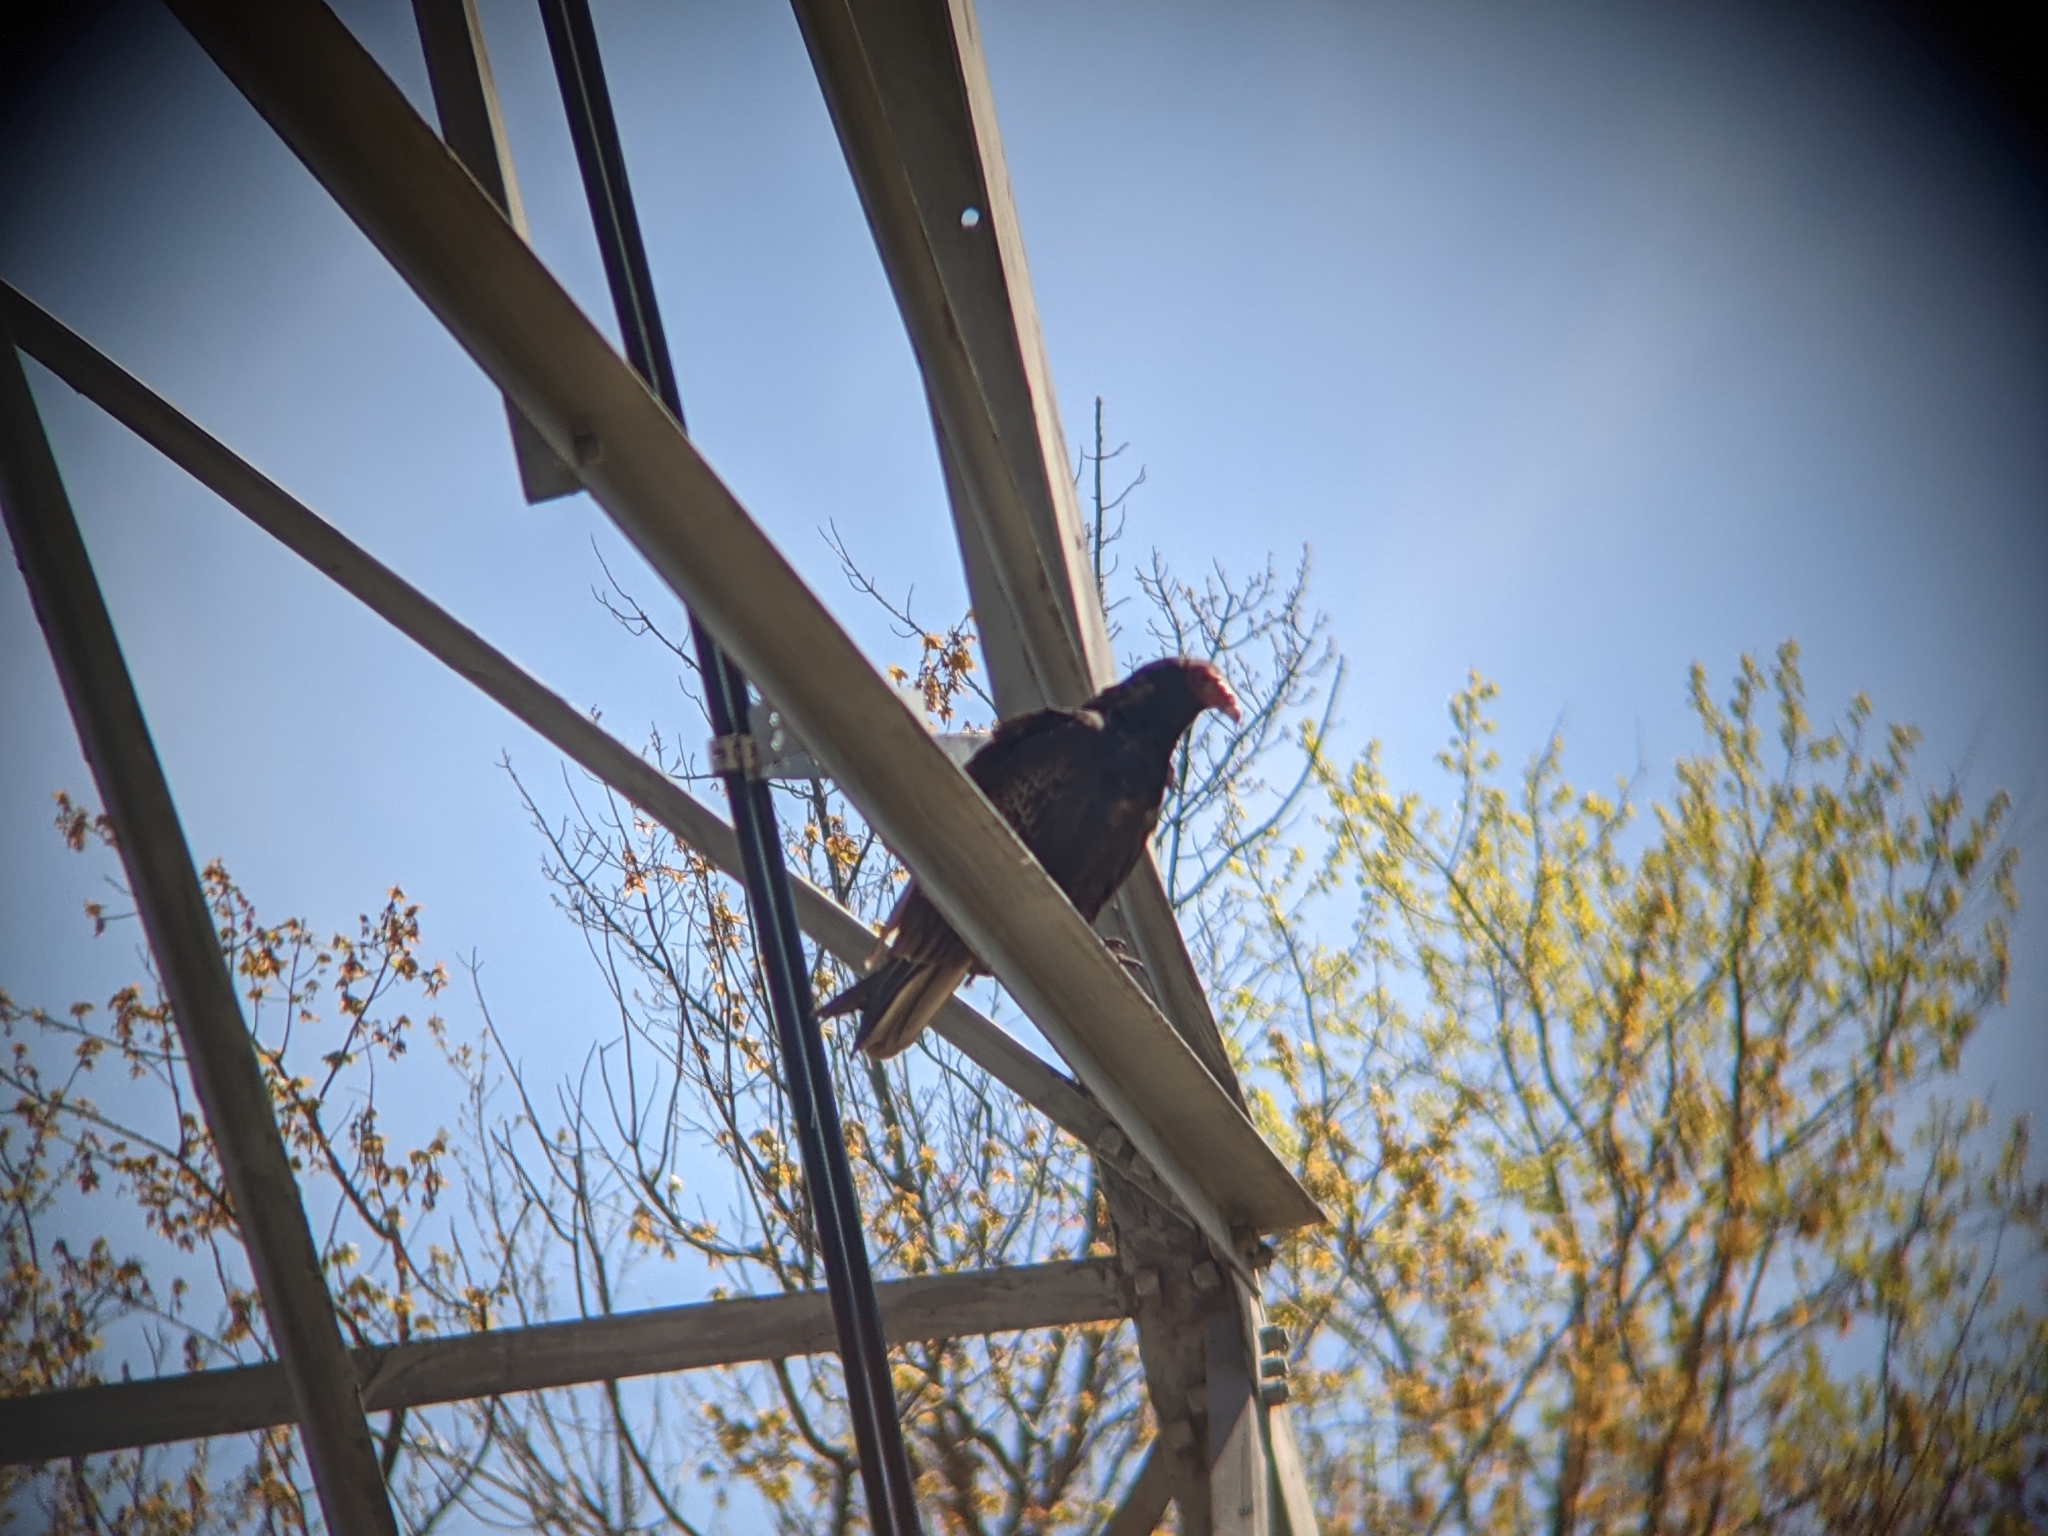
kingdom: Animalia
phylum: Chordata
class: Aves
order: Accipitriformes
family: Cathartidae
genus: Cathartes
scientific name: Cathartes aura
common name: Turkey vulture
